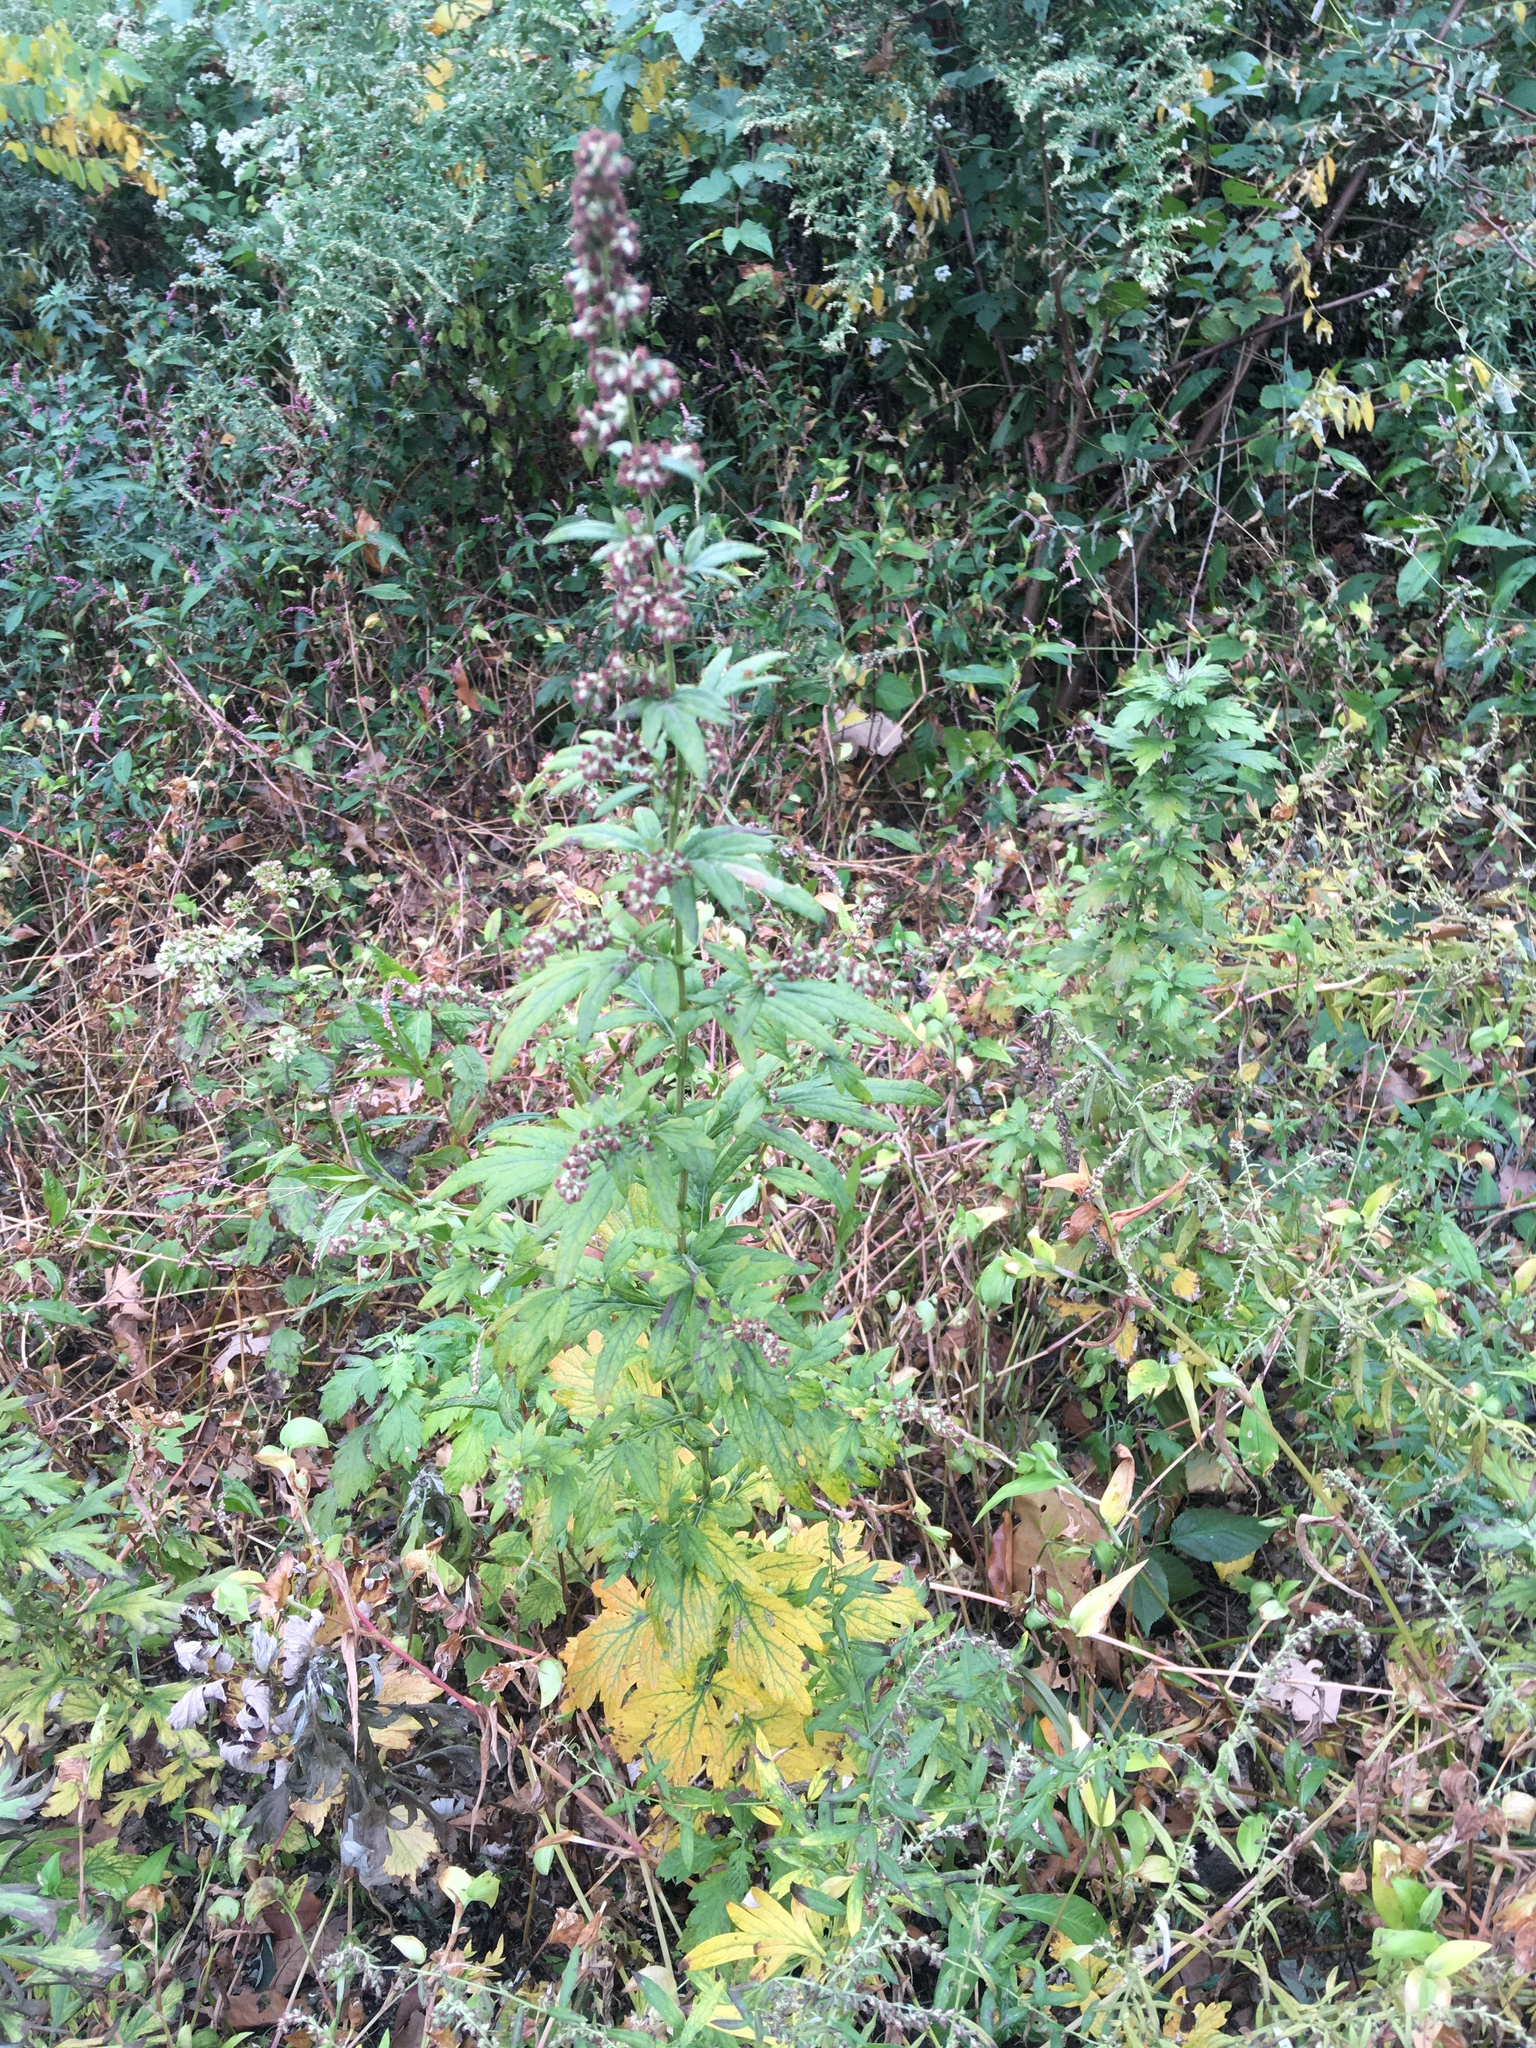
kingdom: Plantae
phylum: Tracheophyta
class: Magnoliopsida
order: Asterales
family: Asteraceae
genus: Artemisia
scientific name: Artemisia vulgaris
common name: Mugwort
